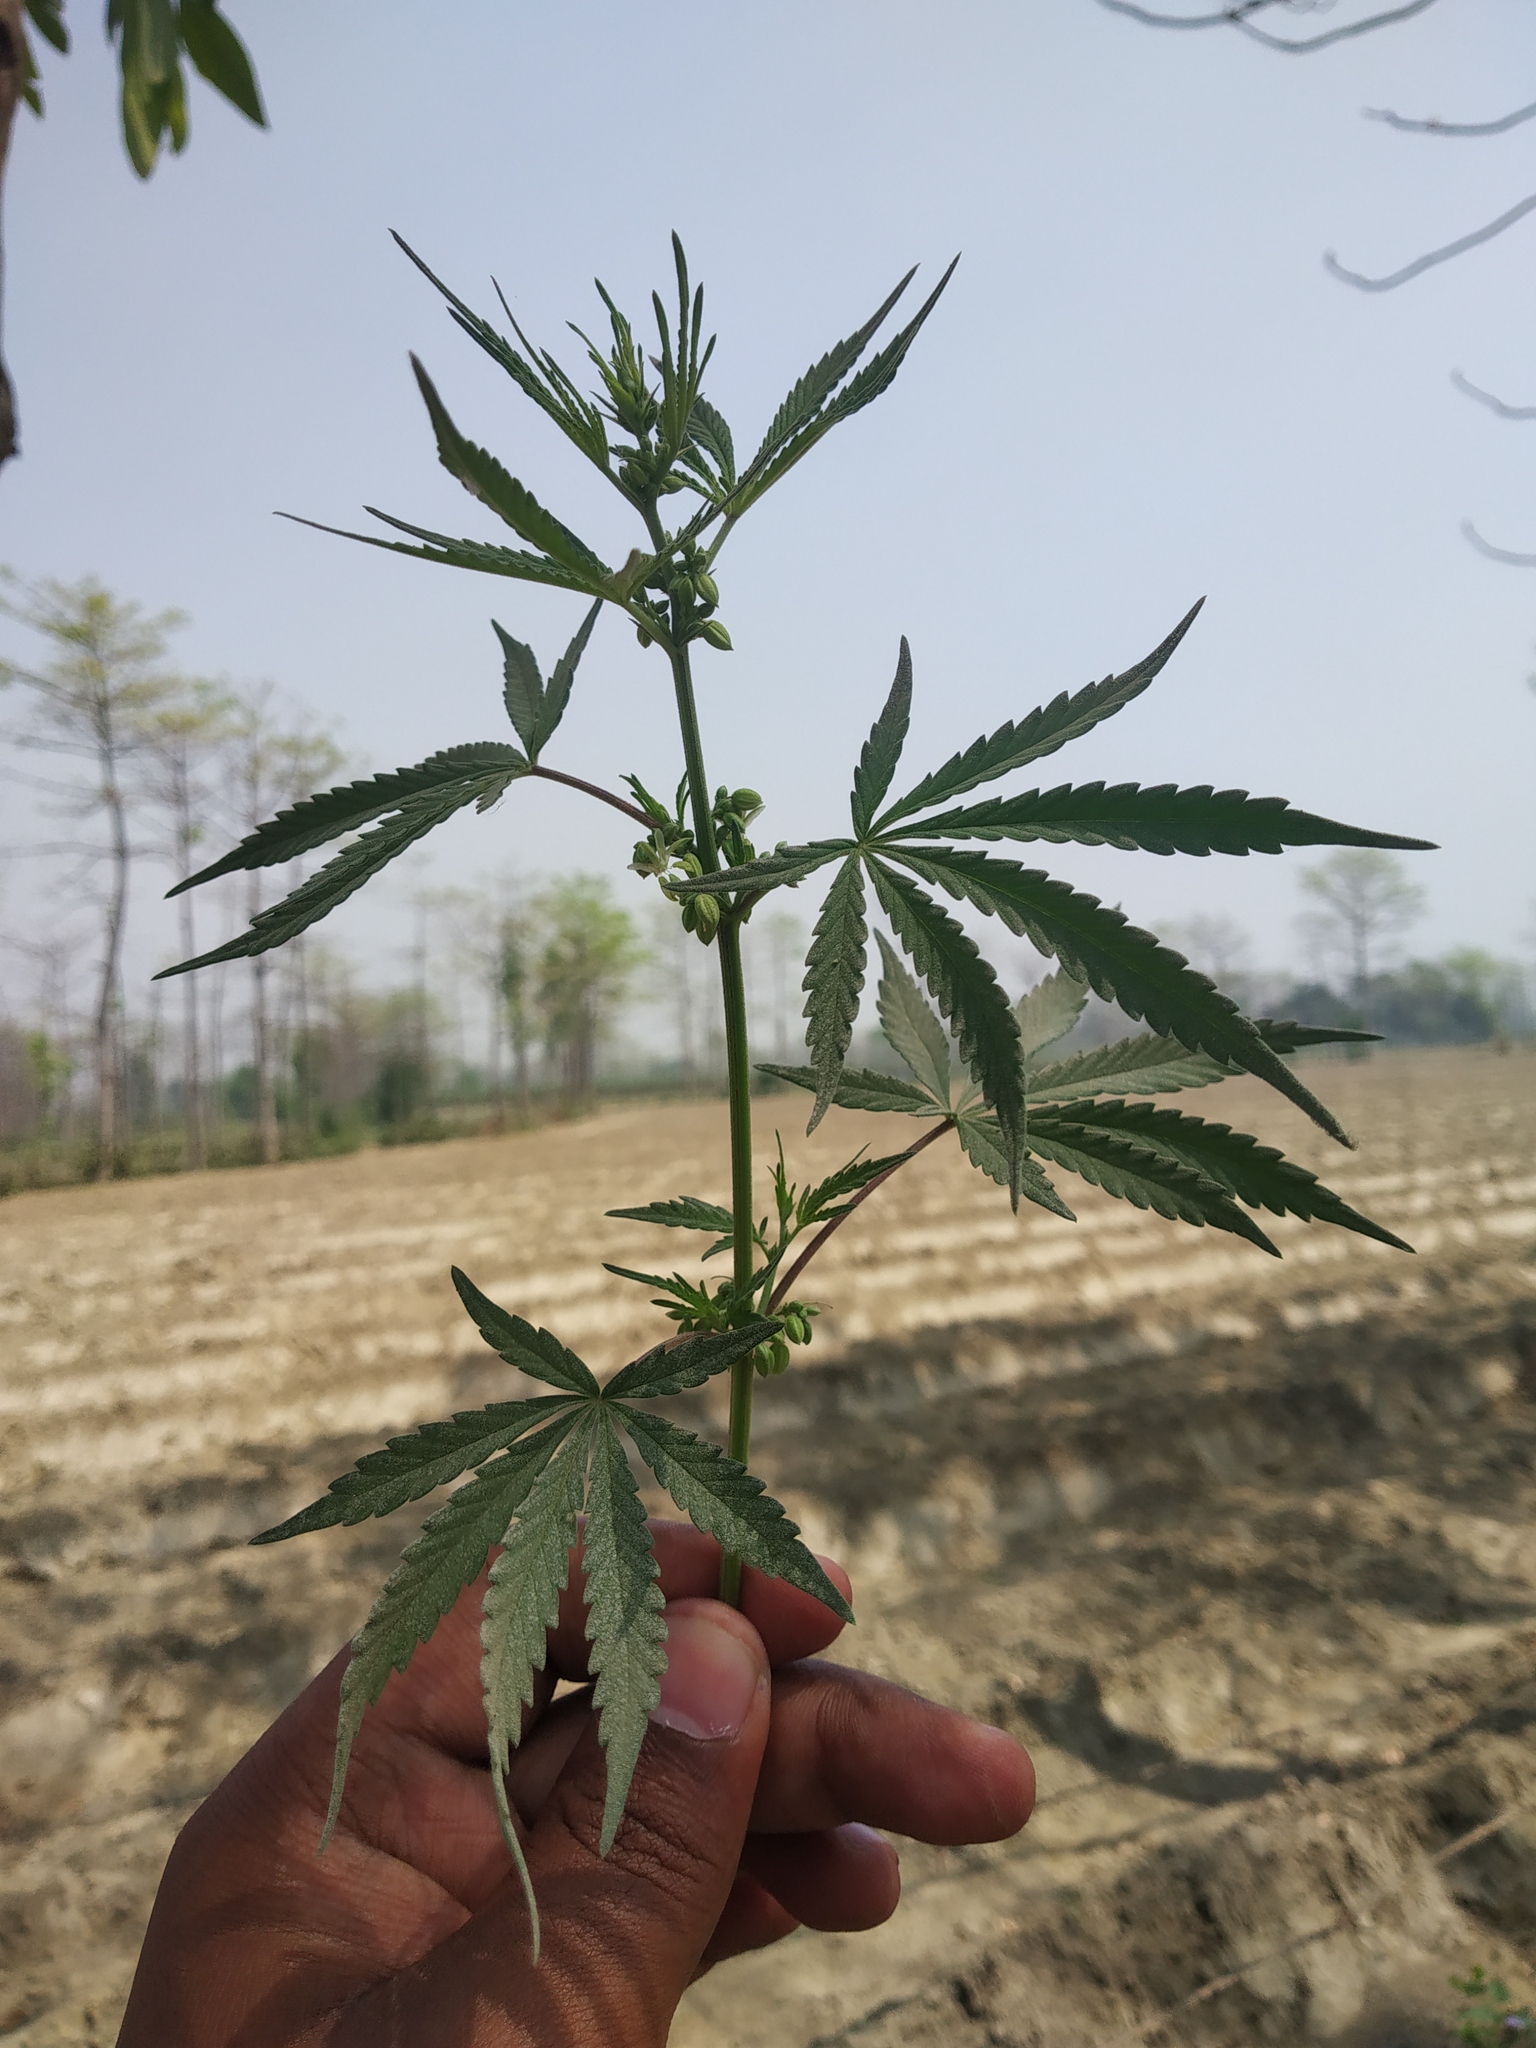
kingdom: Plantae
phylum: Tracheophyta
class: Magnoliopsida
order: Rosales
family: Cannabaceae
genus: Cannabis
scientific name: Cannabis sativa
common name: Hemp
